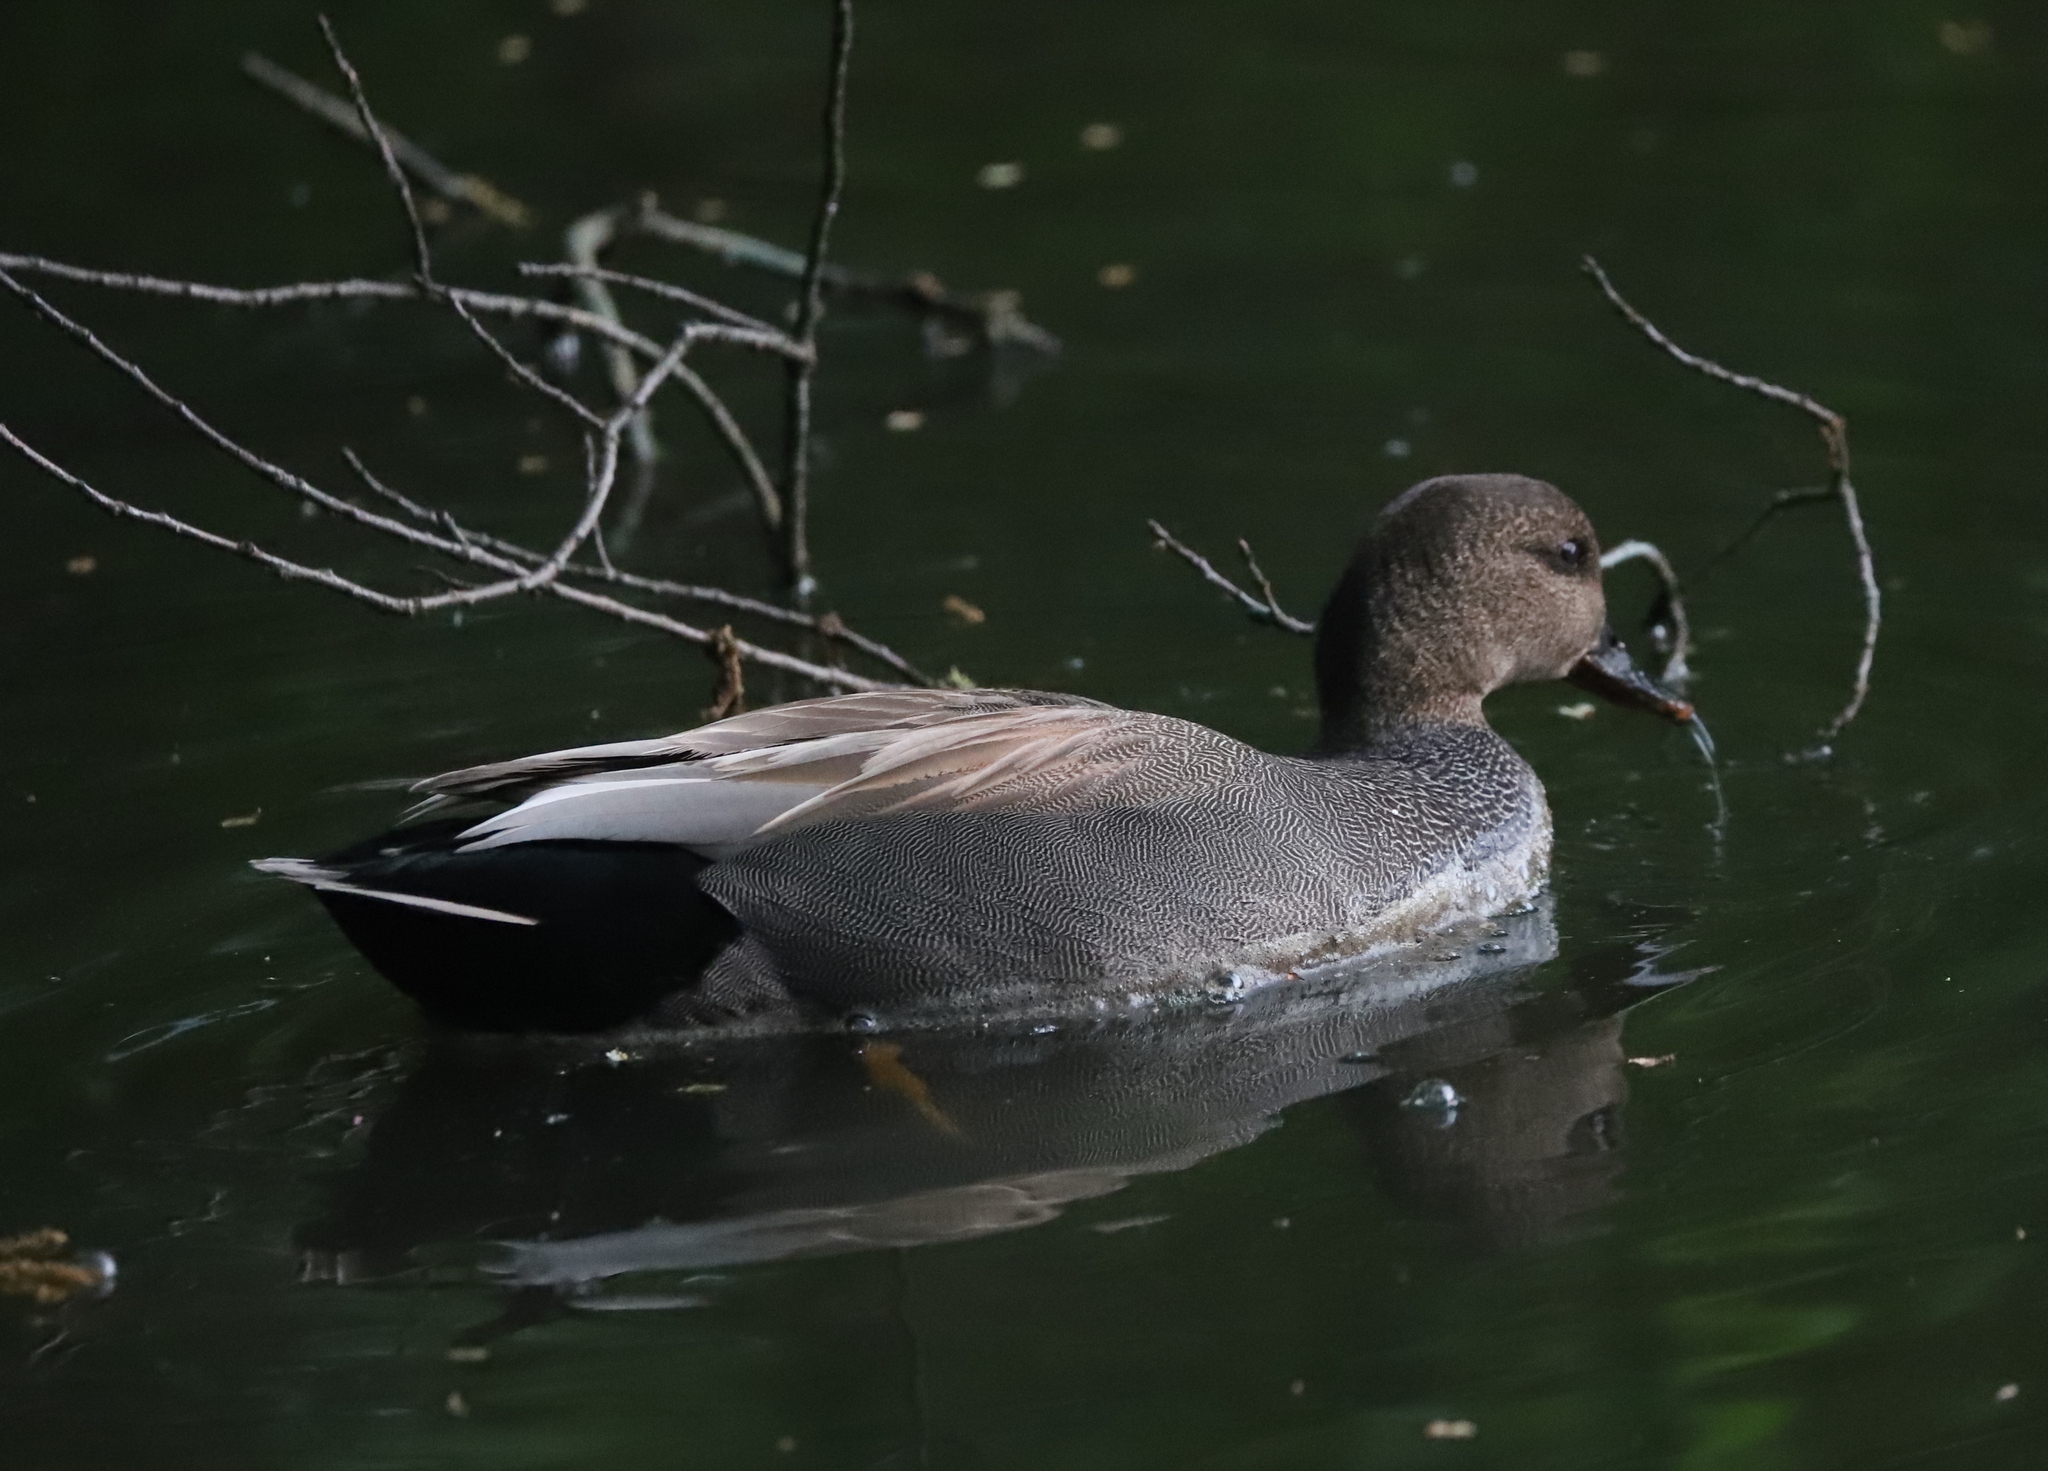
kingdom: Animalia
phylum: Chordata
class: Aves
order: Anseriformes
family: Anatidae
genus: Mareca
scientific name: Mareca strepera
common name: Gadwall
